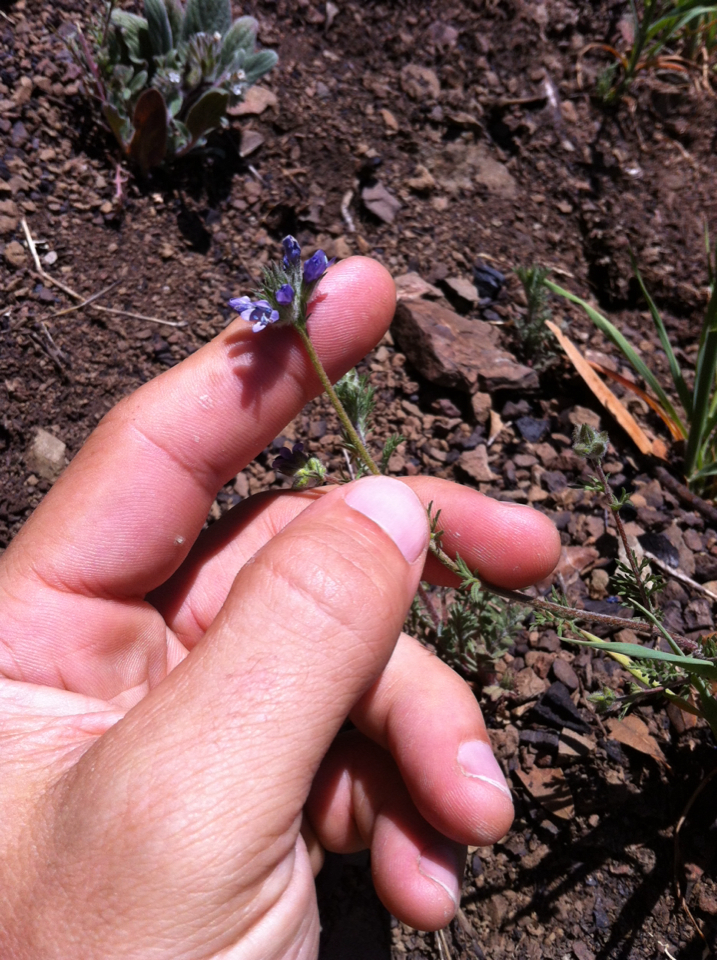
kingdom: Plantae
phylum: Tracheophyta
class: Magnoliopsida
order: Ericales
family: Polemoniaceae
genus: Gilia
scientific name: Gilia achilleifolia
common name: California gily-flower
